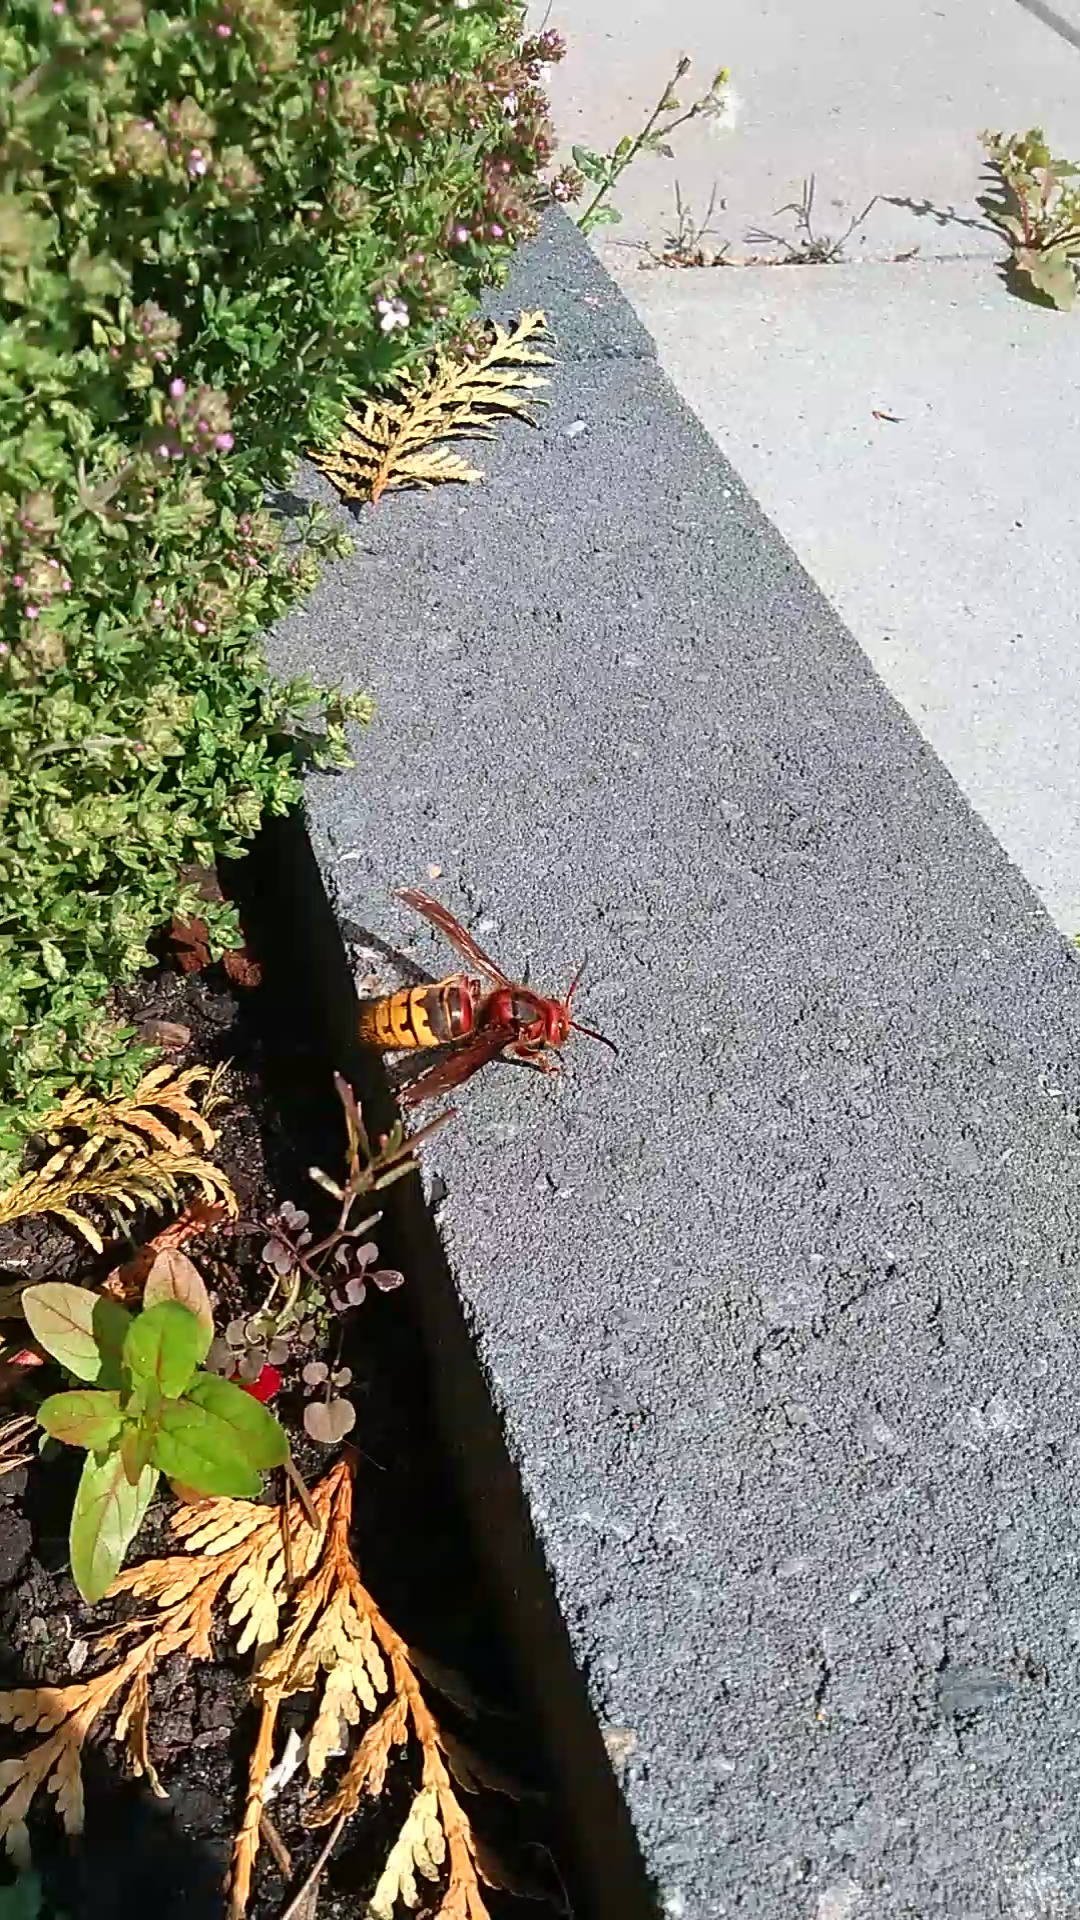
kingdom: Animalia
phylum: Arthropoda
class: Insecta
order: Hymenoptera
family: Vespidae
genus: Vespa
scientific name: Vespa crabro
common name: Hornet
